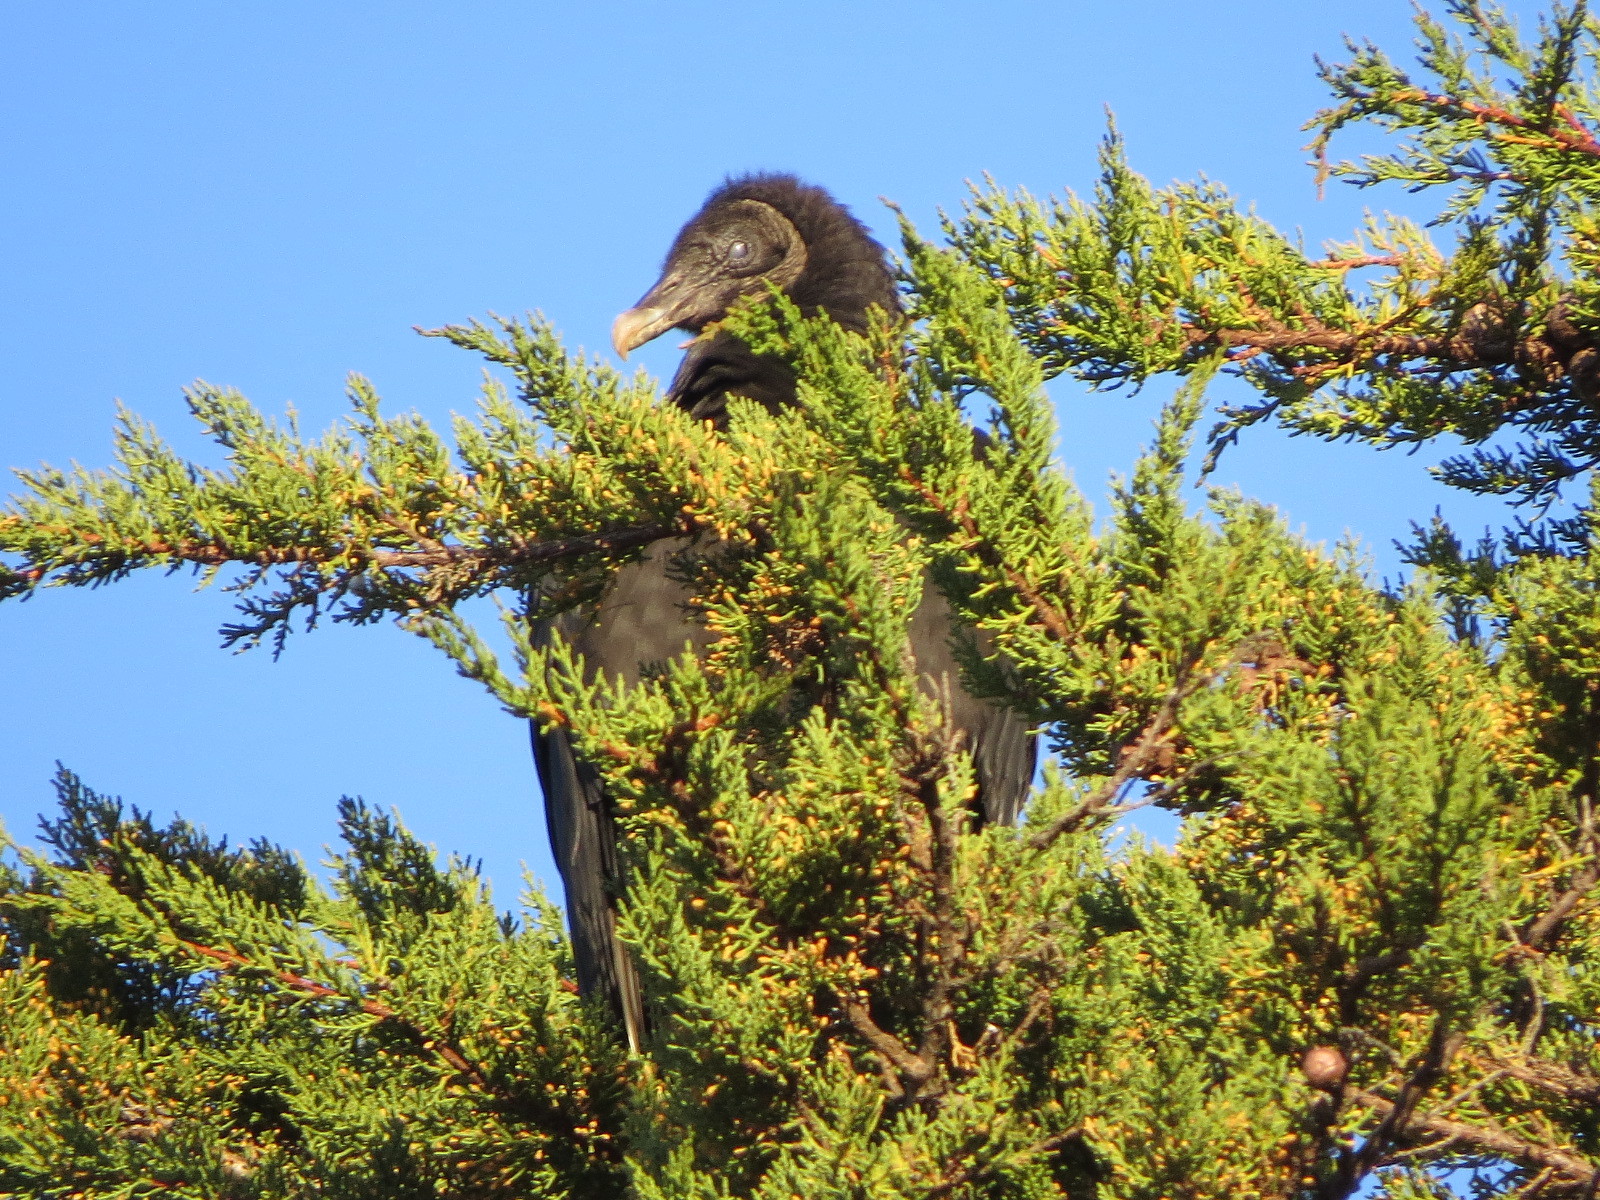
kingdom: Animalia
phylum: Chordata
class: Aves
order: Accipitriformes
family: Cathartidae
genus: Coragyps
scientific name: Coragyps atratus
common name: Black vulture
